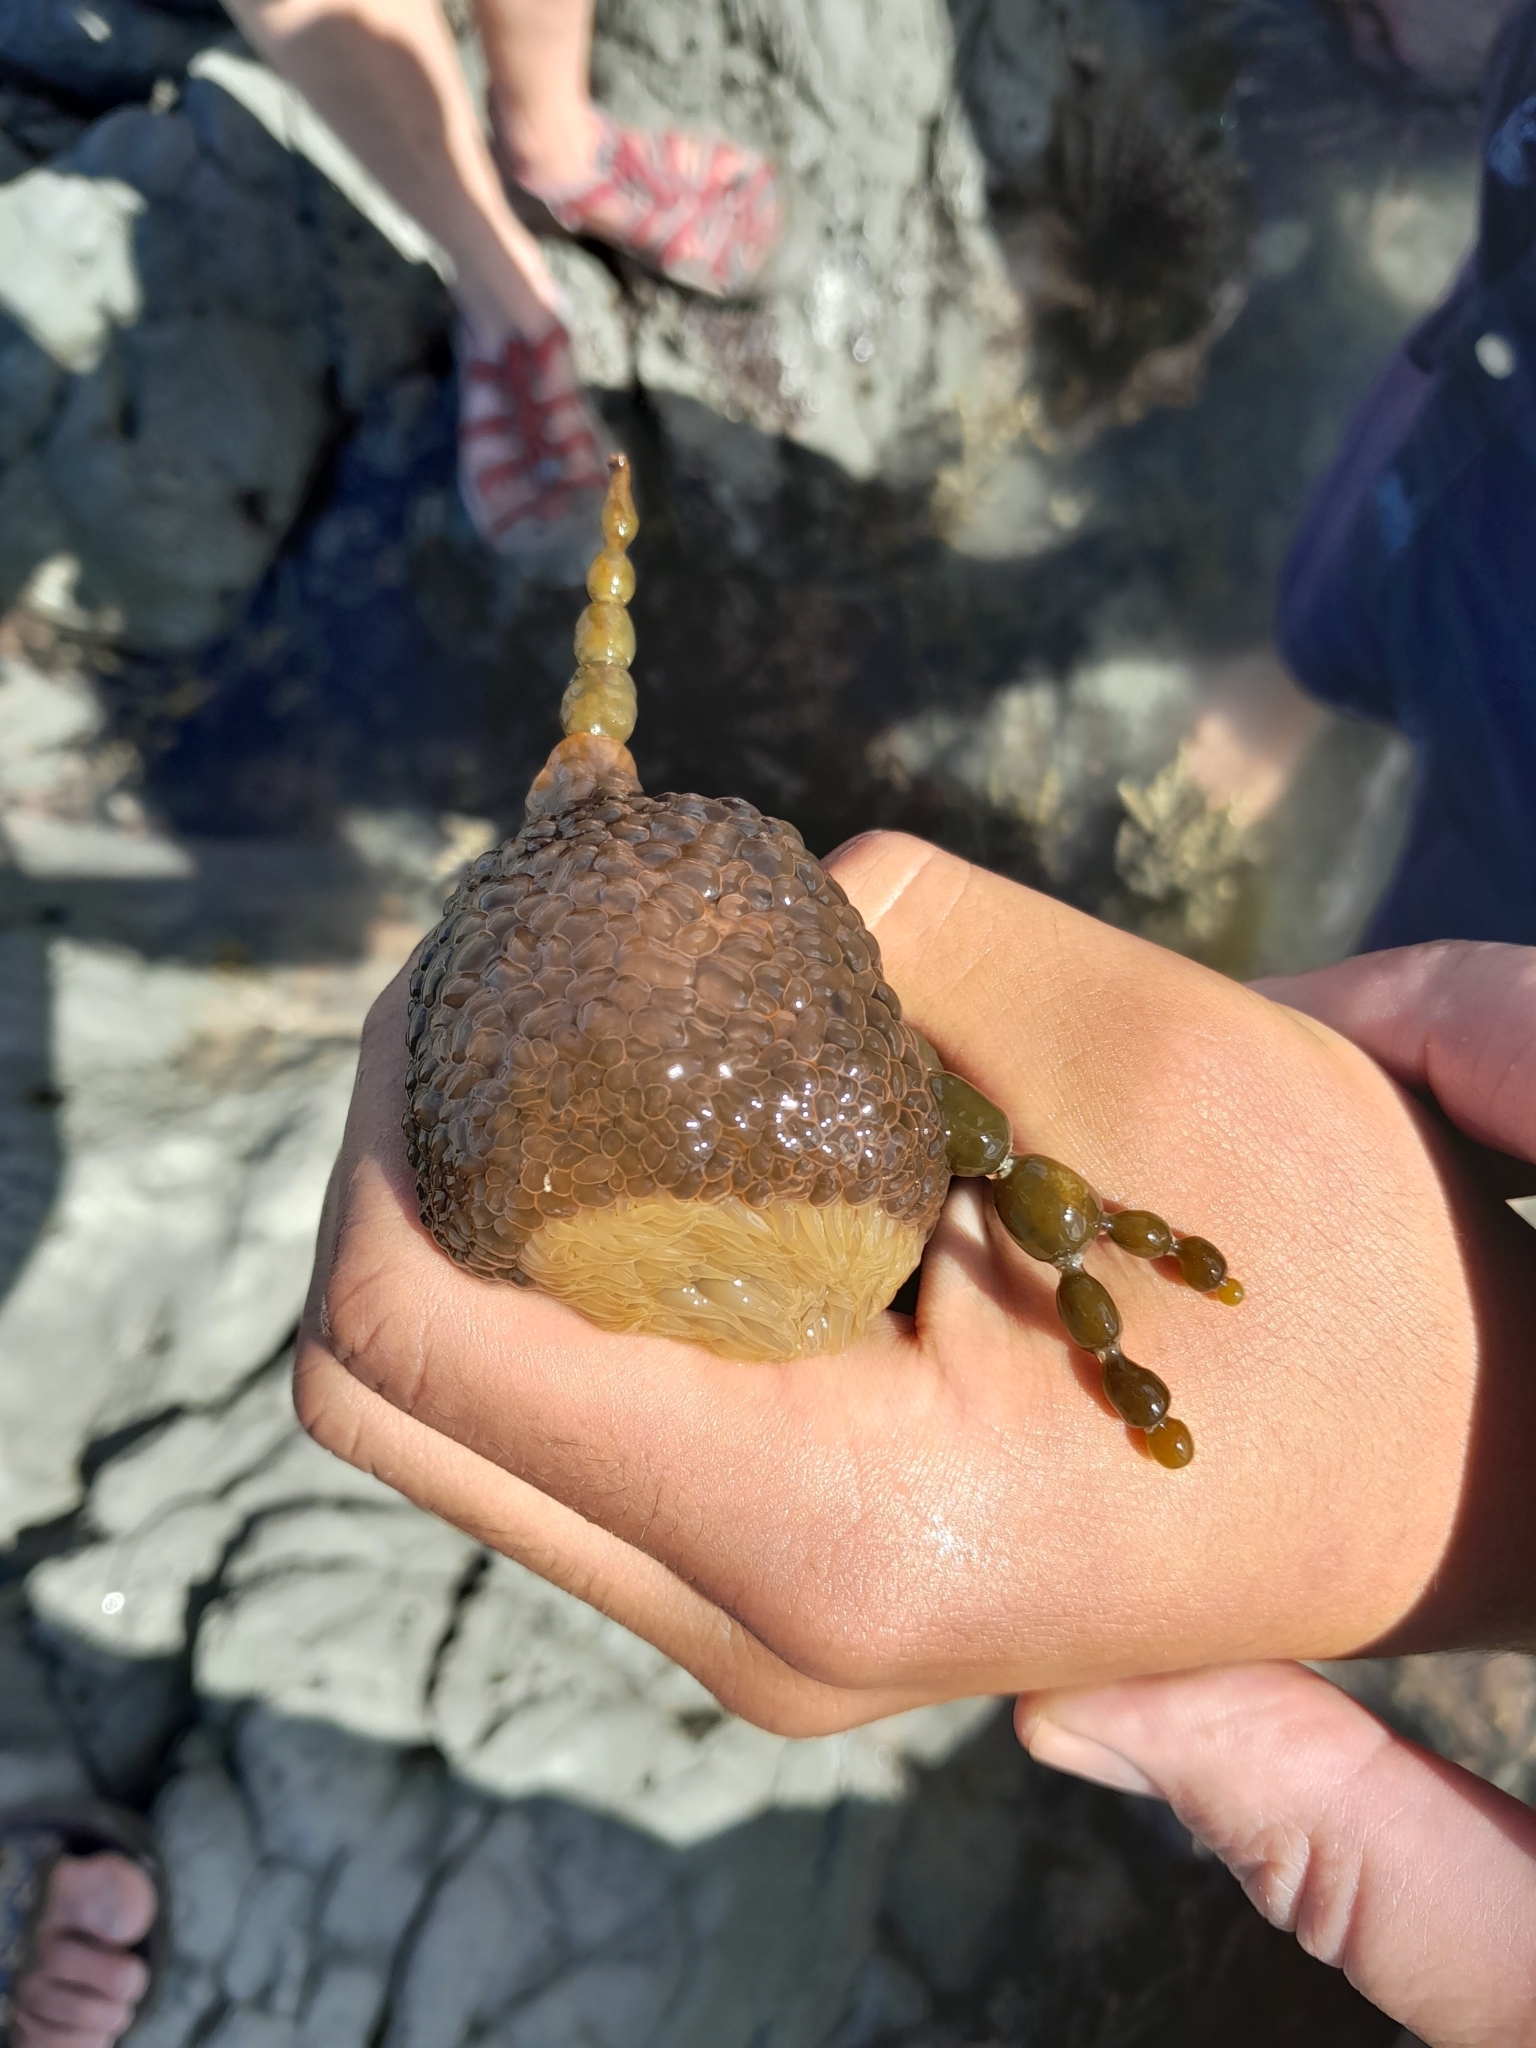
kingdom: Animalia
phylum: Cnidaria
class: Anthozoa
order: Actiniaria
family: Actiniidae
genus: Phlyctenactis
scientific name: Phlyctenactis tuberculosa
